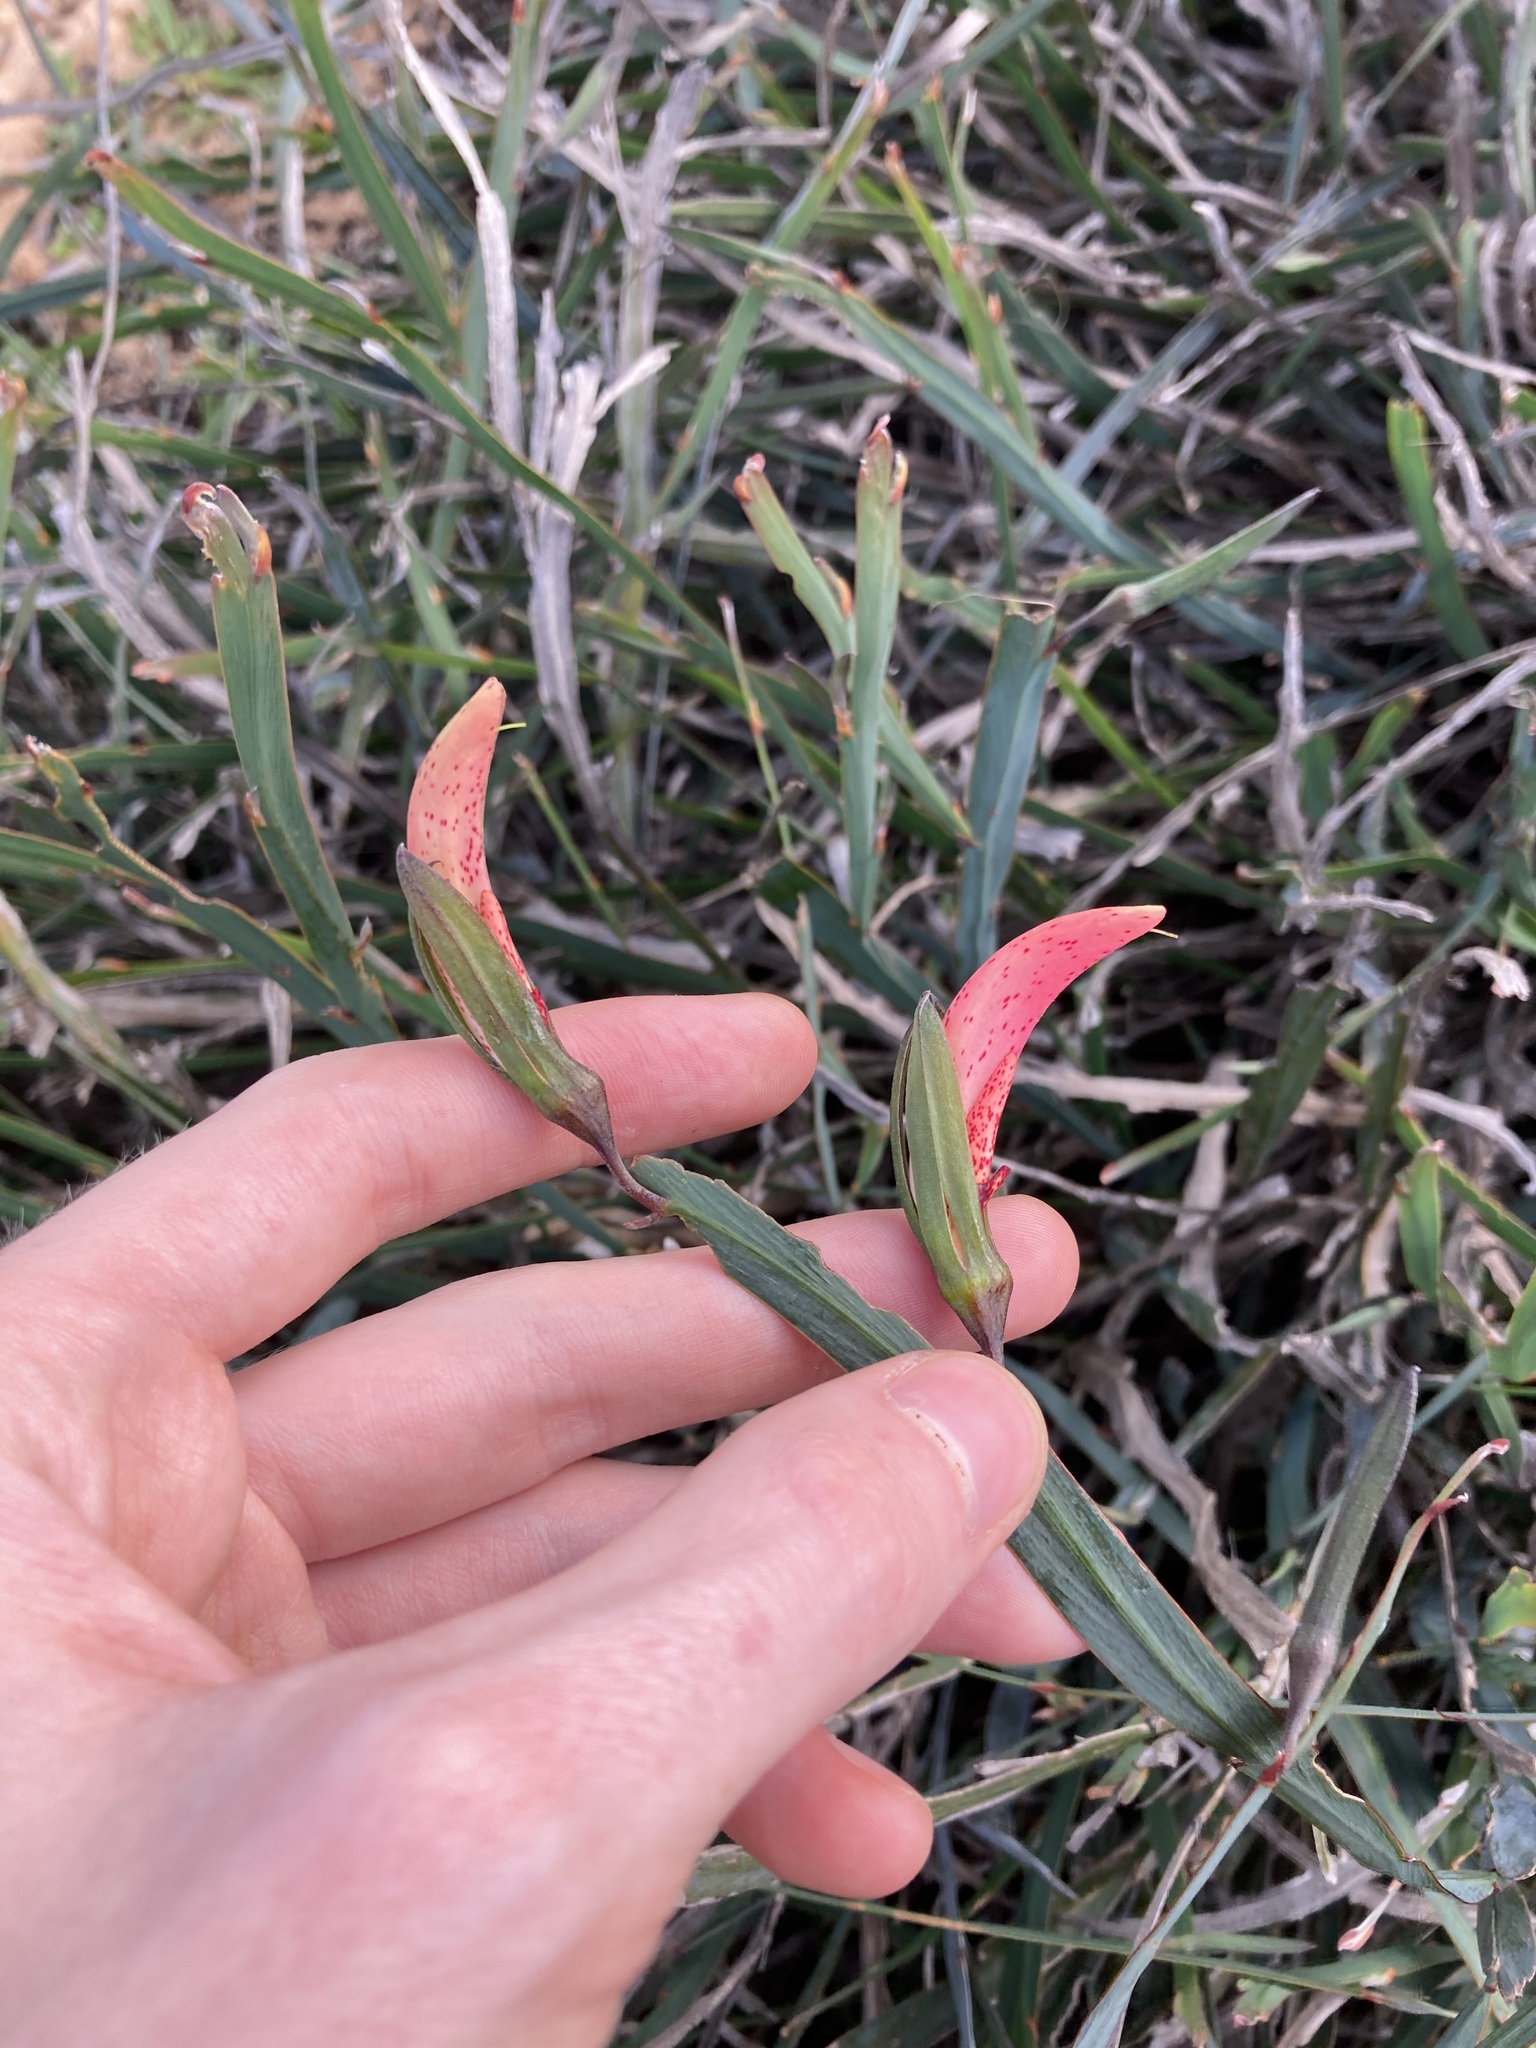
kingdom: Plantae
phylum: Tracheophyta
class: Magnoliopsida
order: Fabales
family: Fabaceae
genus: Leptosema
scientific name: Leptosema aphyllum
